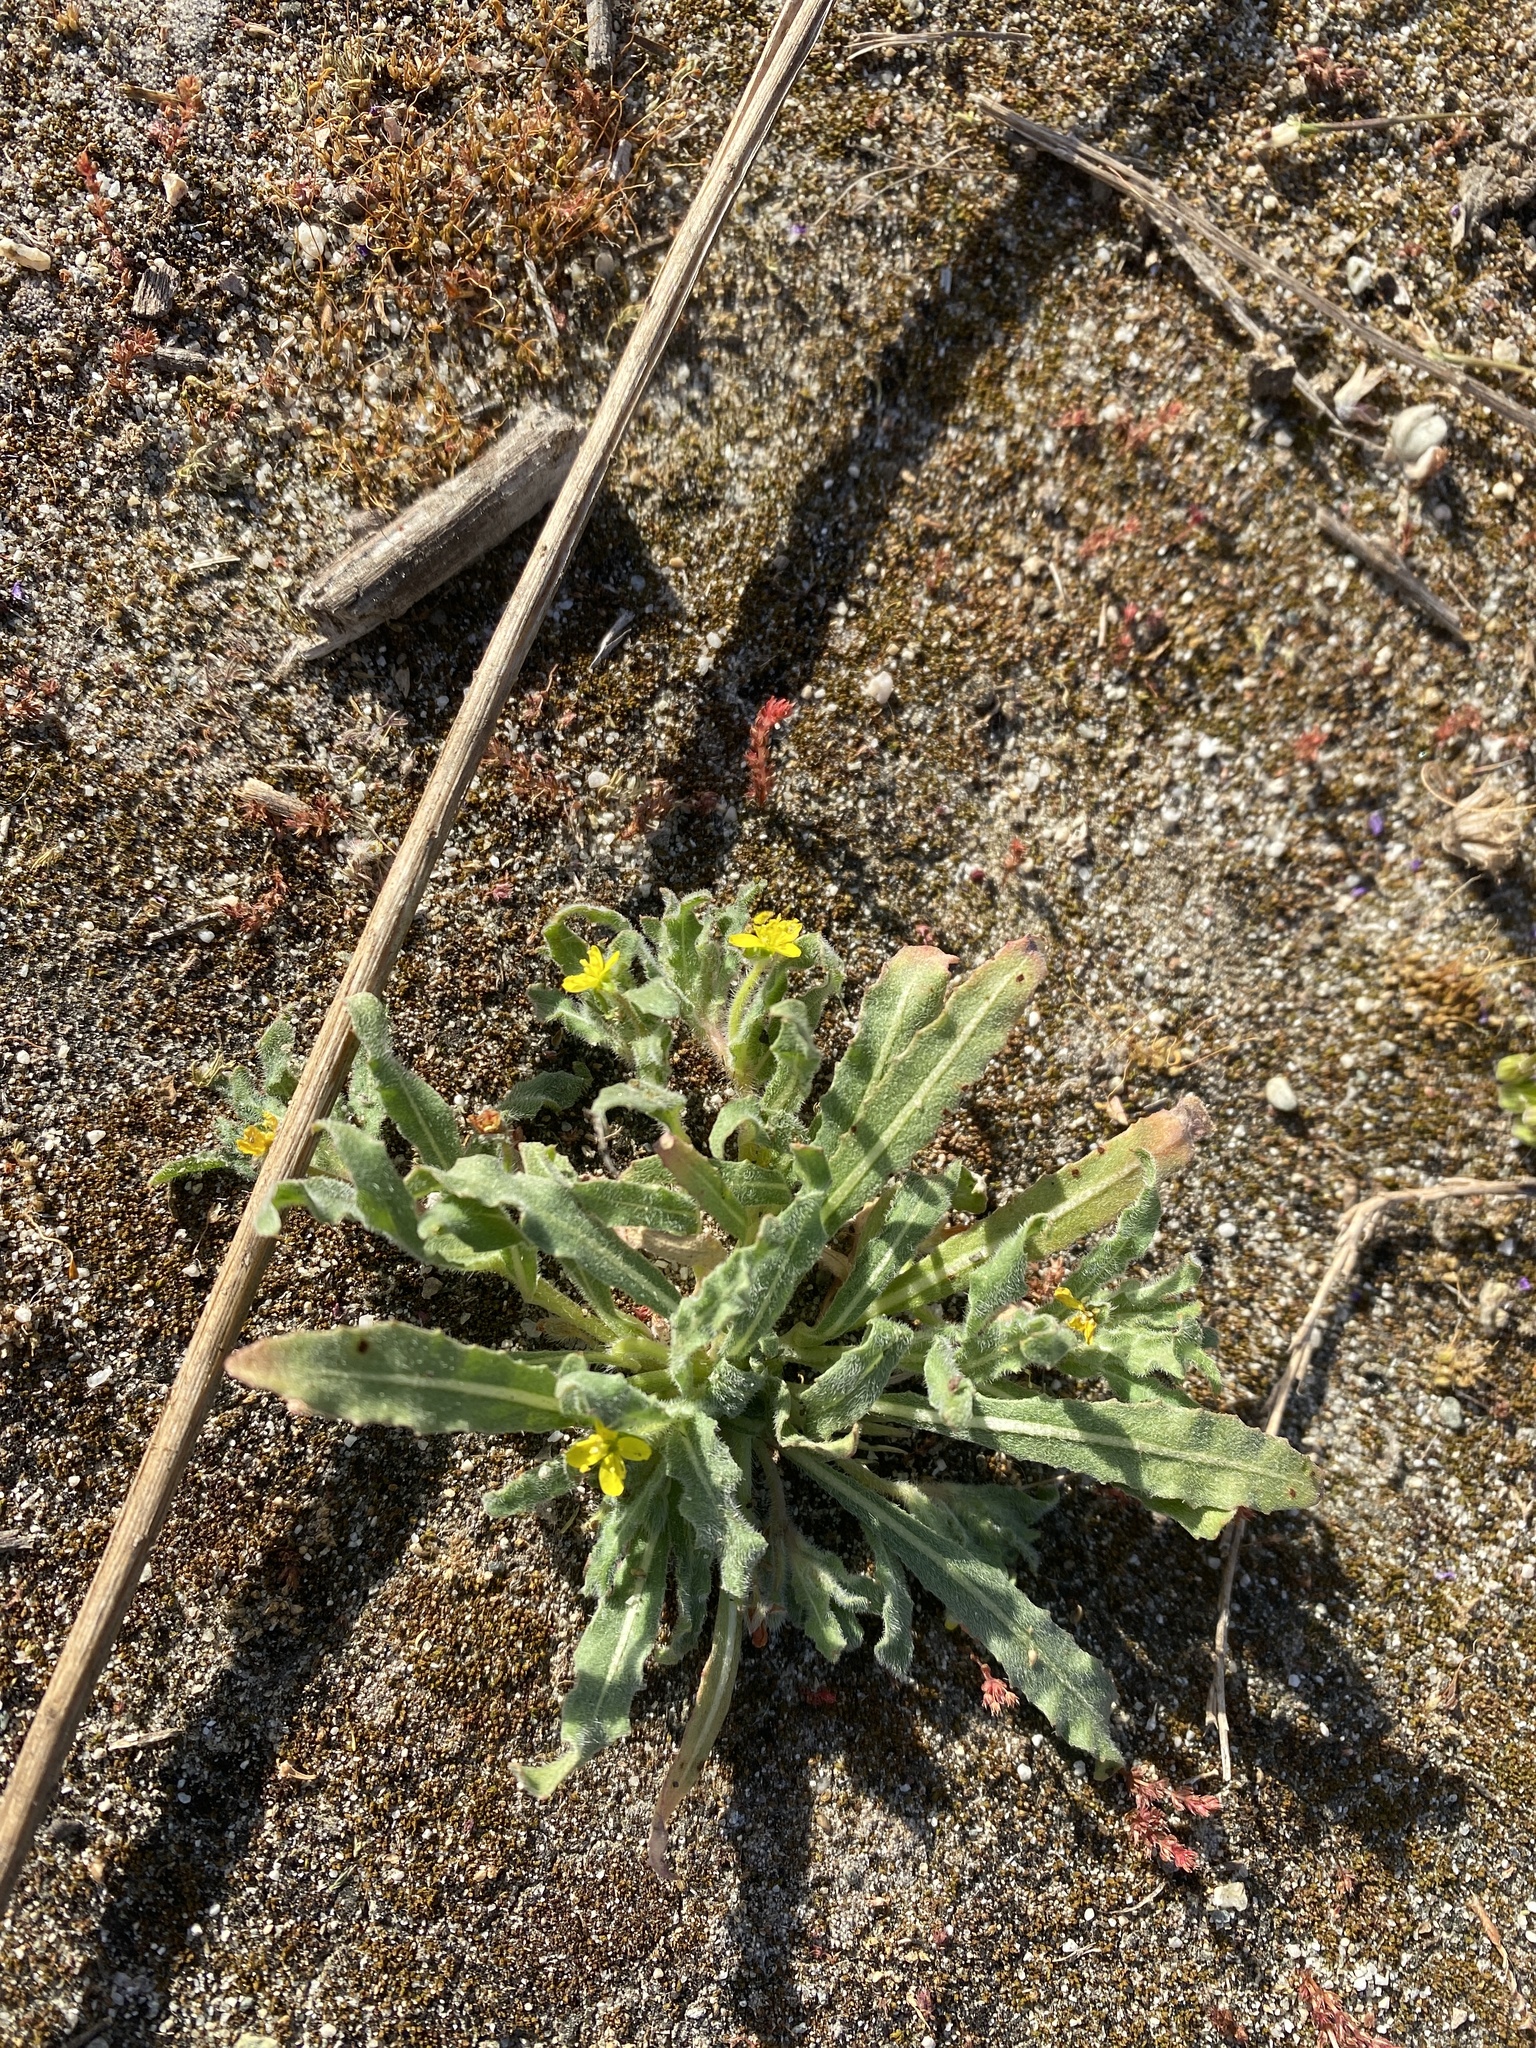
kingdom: Plantae
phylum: Tracheophyta
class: Magnoliopsida
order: Myrtales
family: Onagraceae
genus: Camissoniopsis
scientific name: Camissoniopsis micrantha
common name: Miniature suncup
